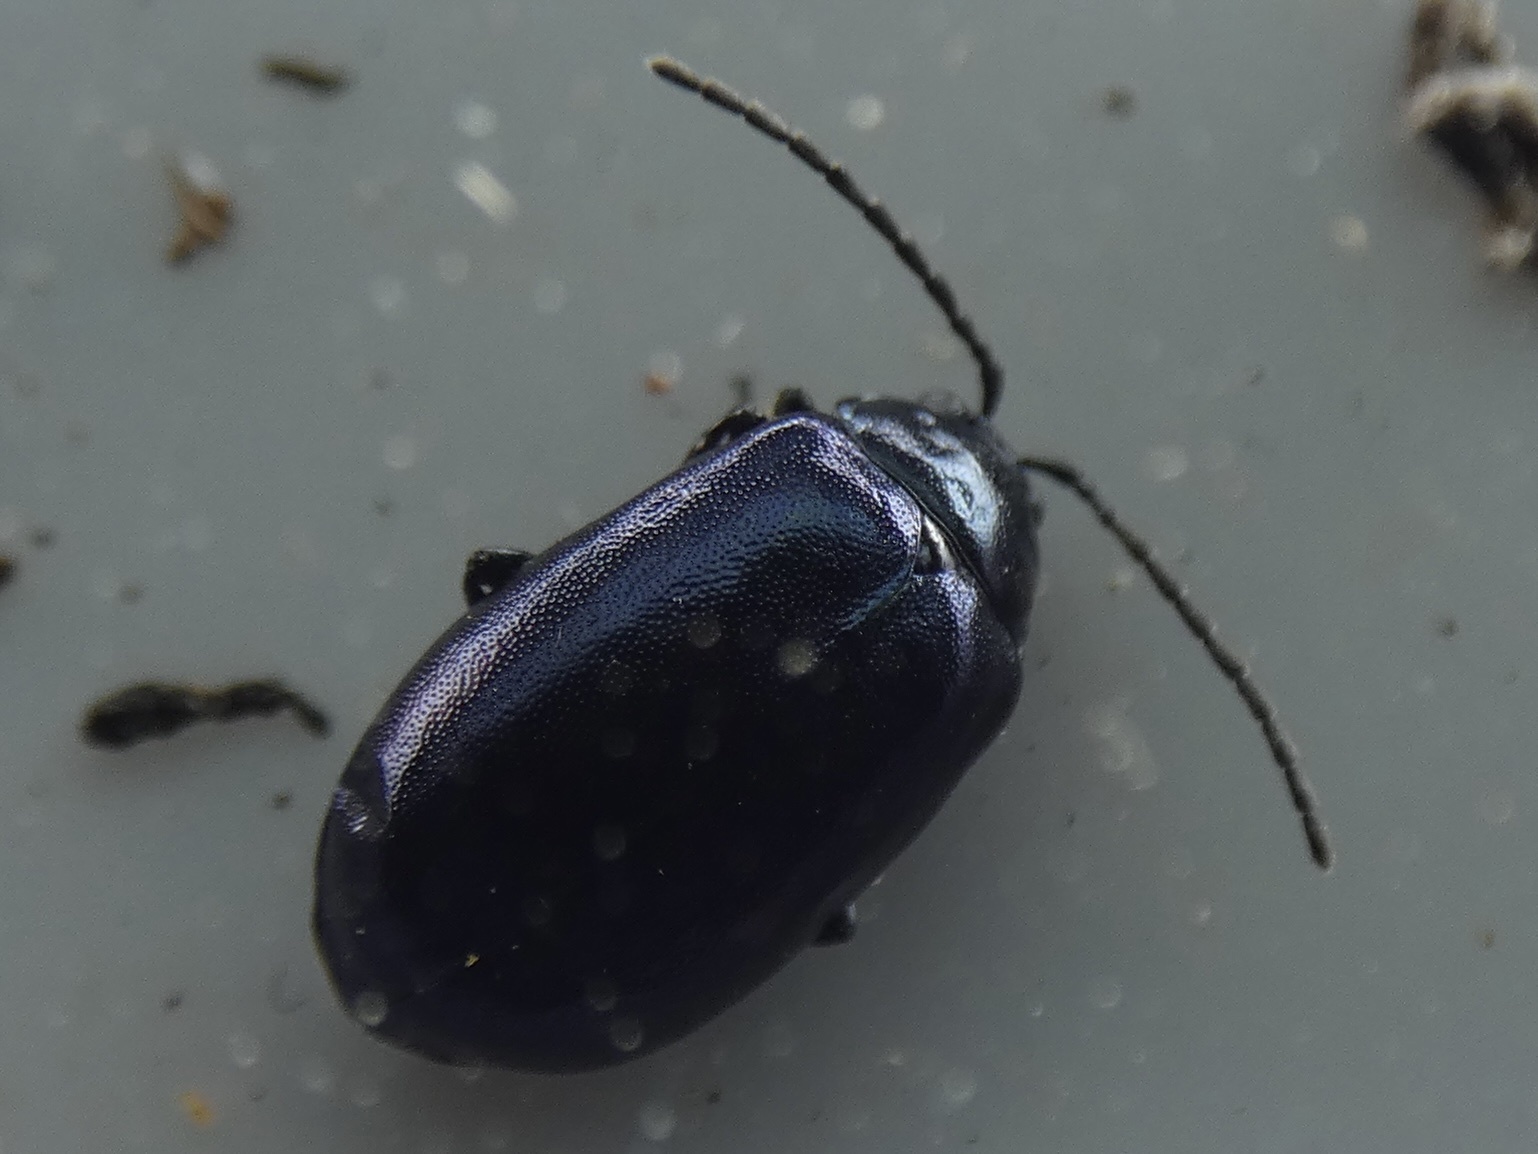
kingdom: Animalia
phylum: Arthropoda
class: Insecta
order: Coleoptera
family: Chrysomelidae
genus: Agelastica
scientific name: Agelastica alni
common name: Alder leaf beetle
